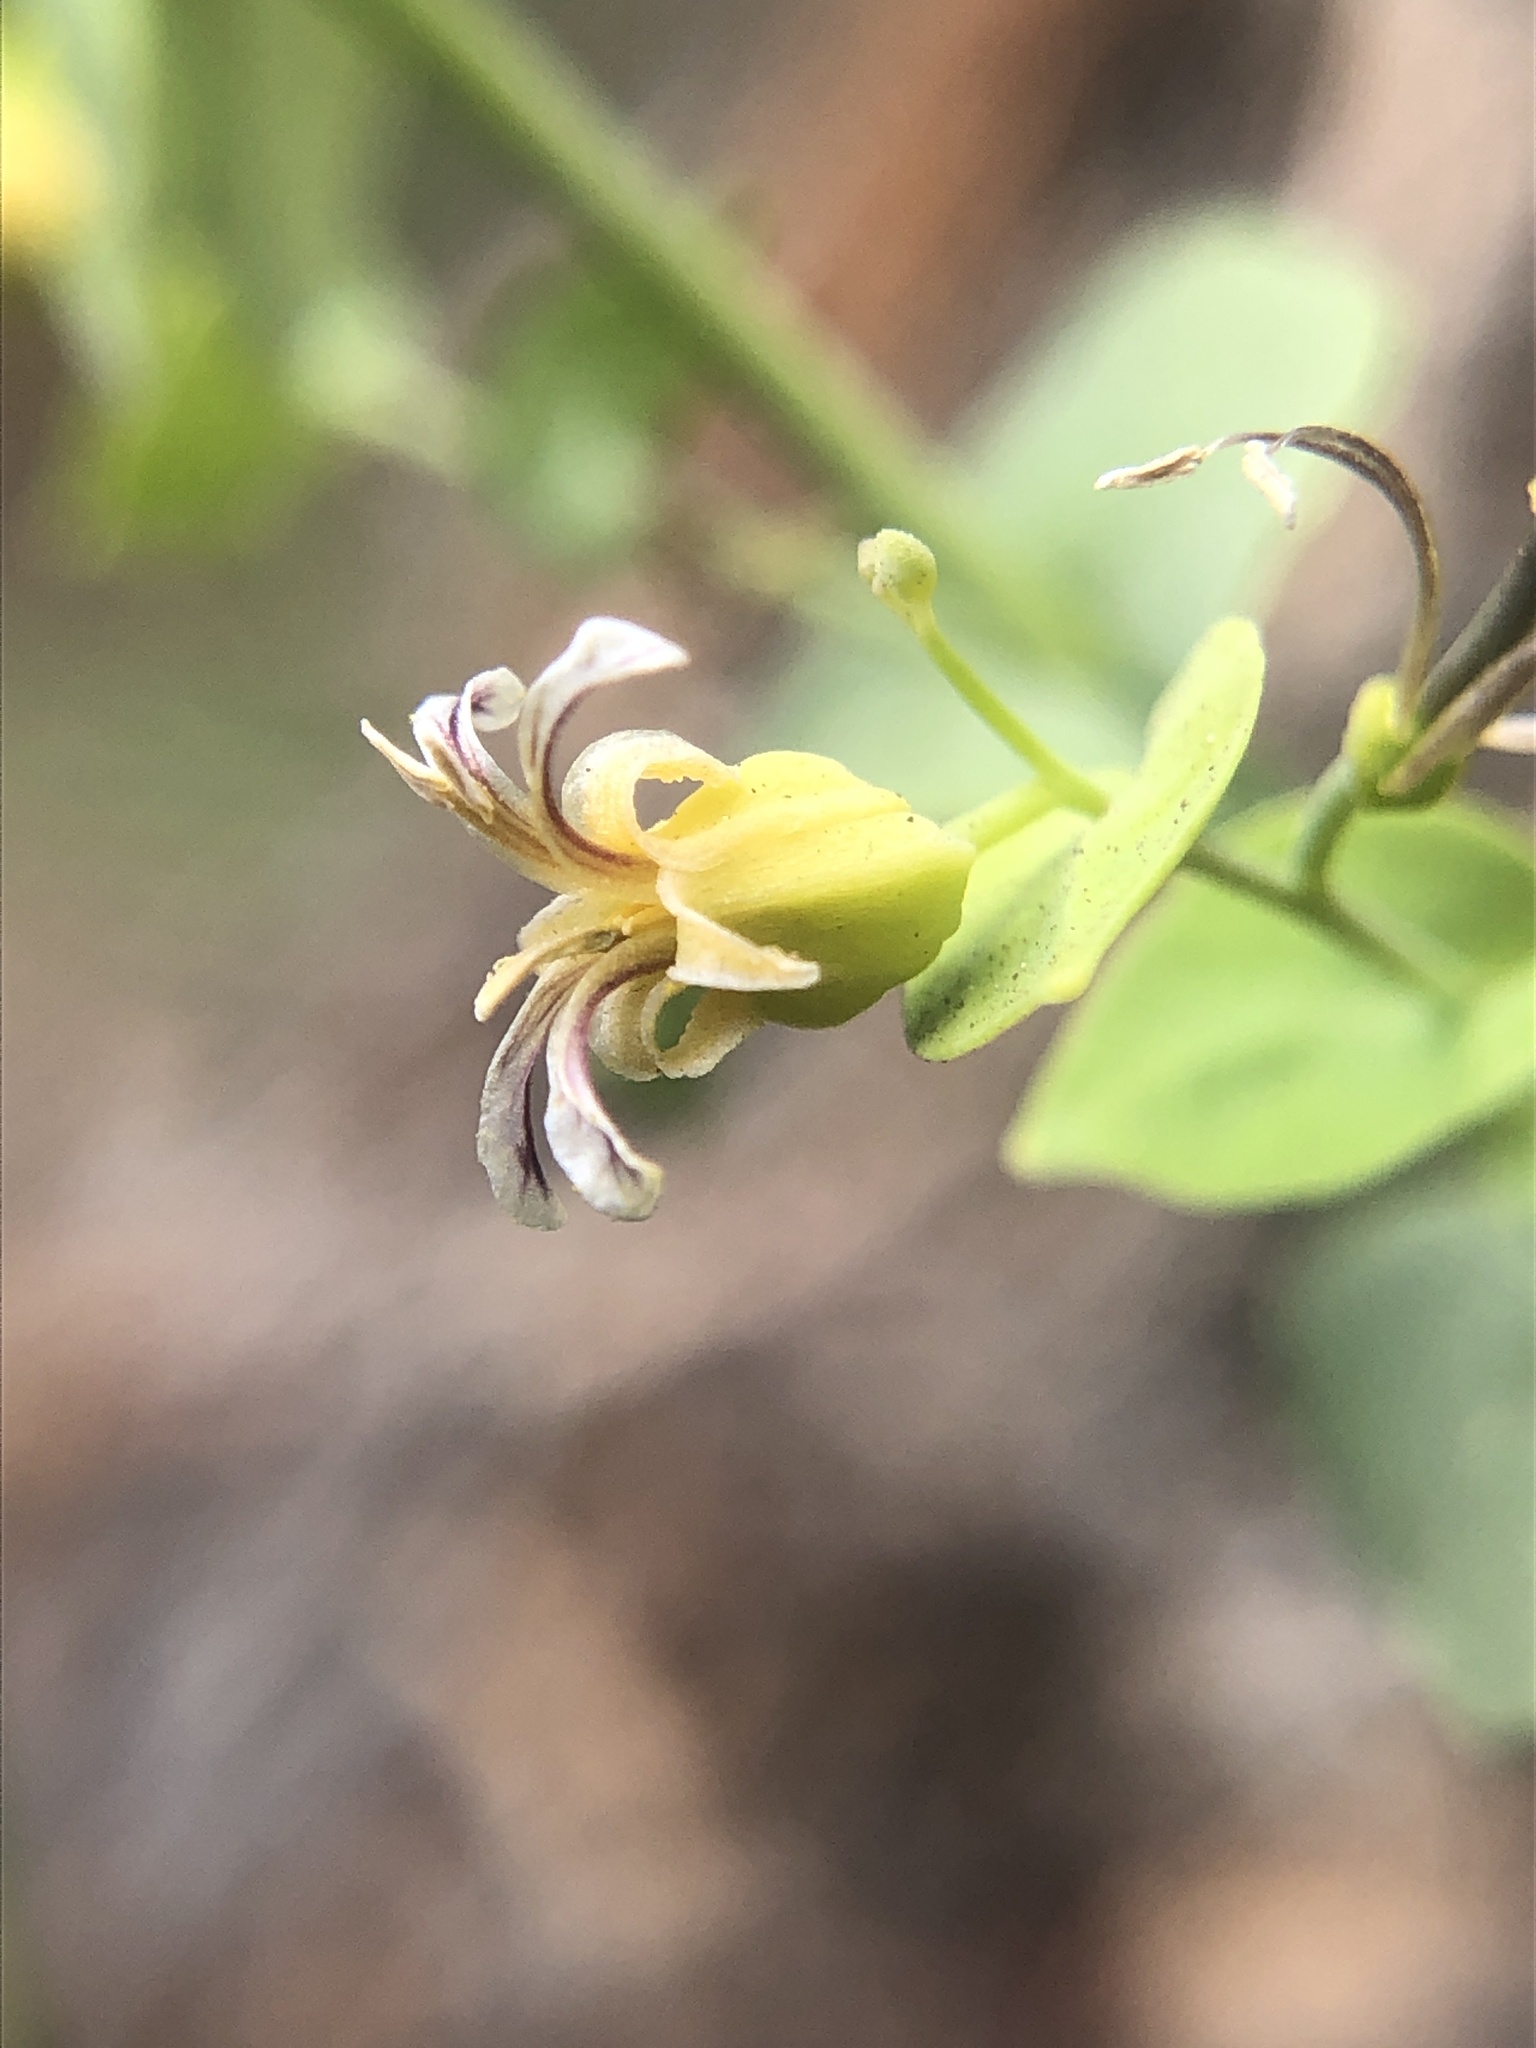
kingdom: Plantae
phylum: Tracheophyta
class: Magnoliopsida
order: Brassicales
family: Brassicaceae
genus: Streptanthus
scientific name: Streptanthus tortuosus
